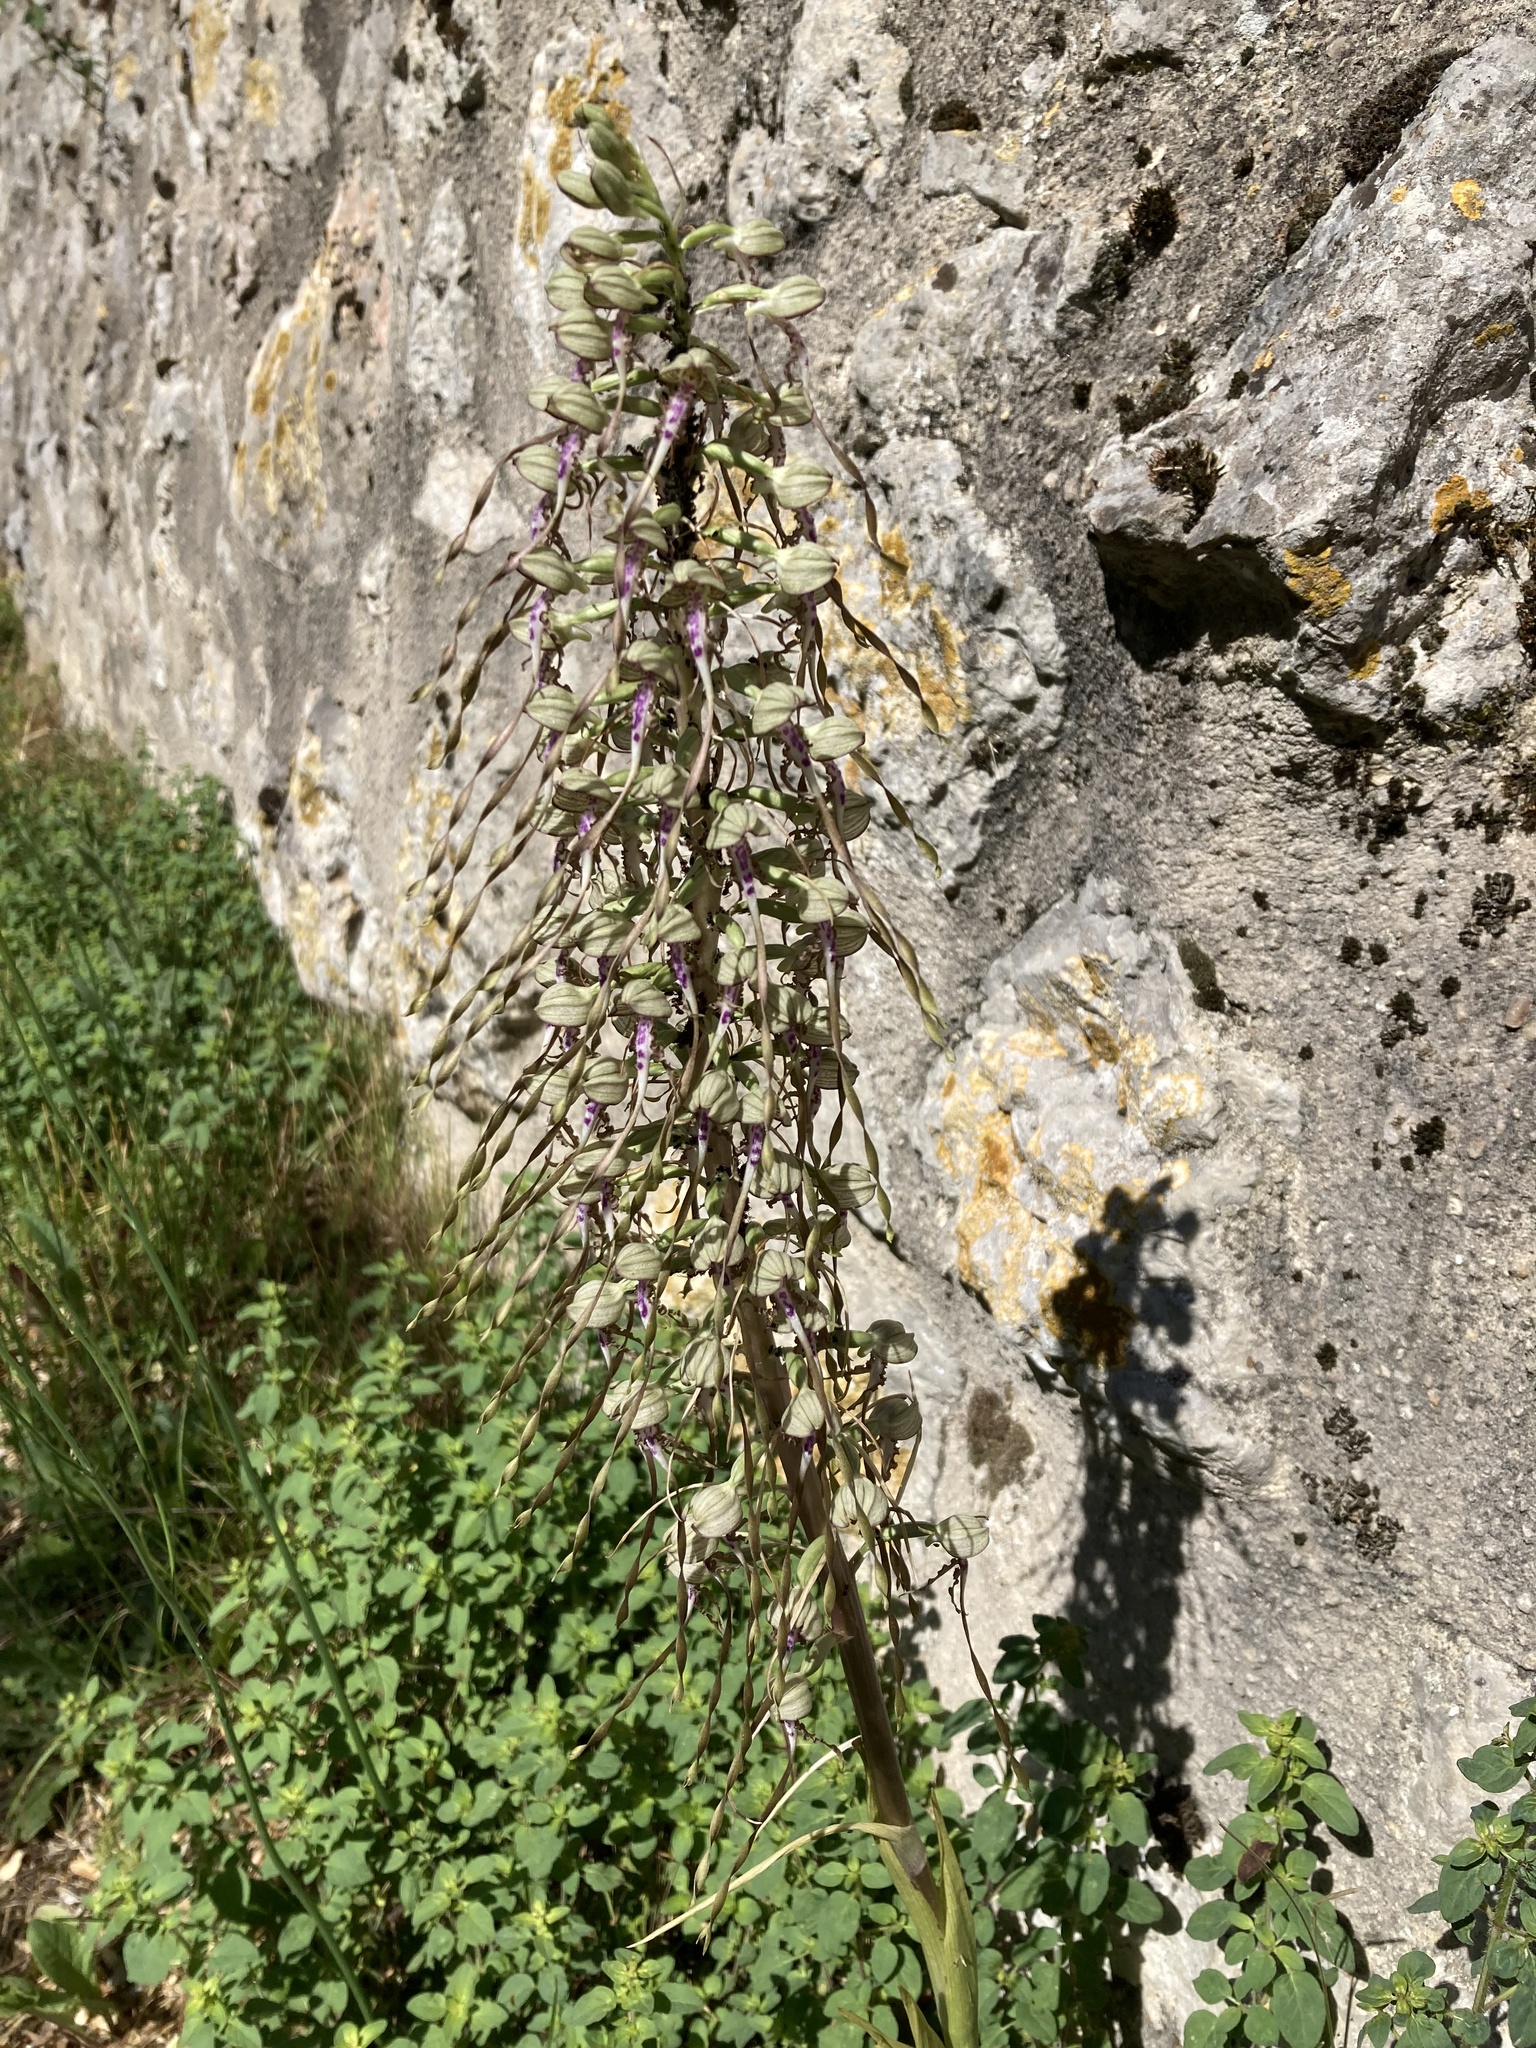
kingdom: Plantae
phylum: Tracheophyta
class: Liliopsida
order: Asparagales
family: Orchidaceae
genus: Himantoglossum
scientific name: Himantoglossum hircinum
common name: Lizard orchid
